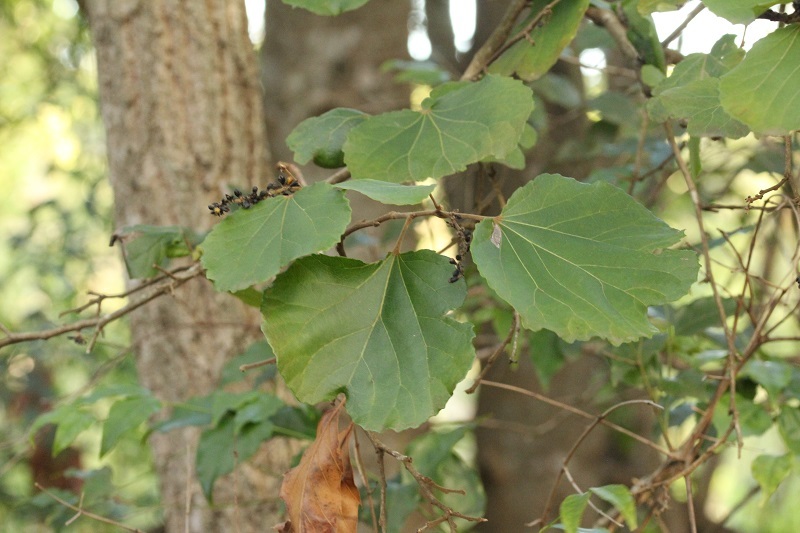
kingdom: Plantae
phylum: Tracheophyta
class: Magnoliopsida
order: Malpighiales
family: Salicaceae
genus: Trimeria
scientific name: Trimeria grandifolia
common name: Wild mulberry
